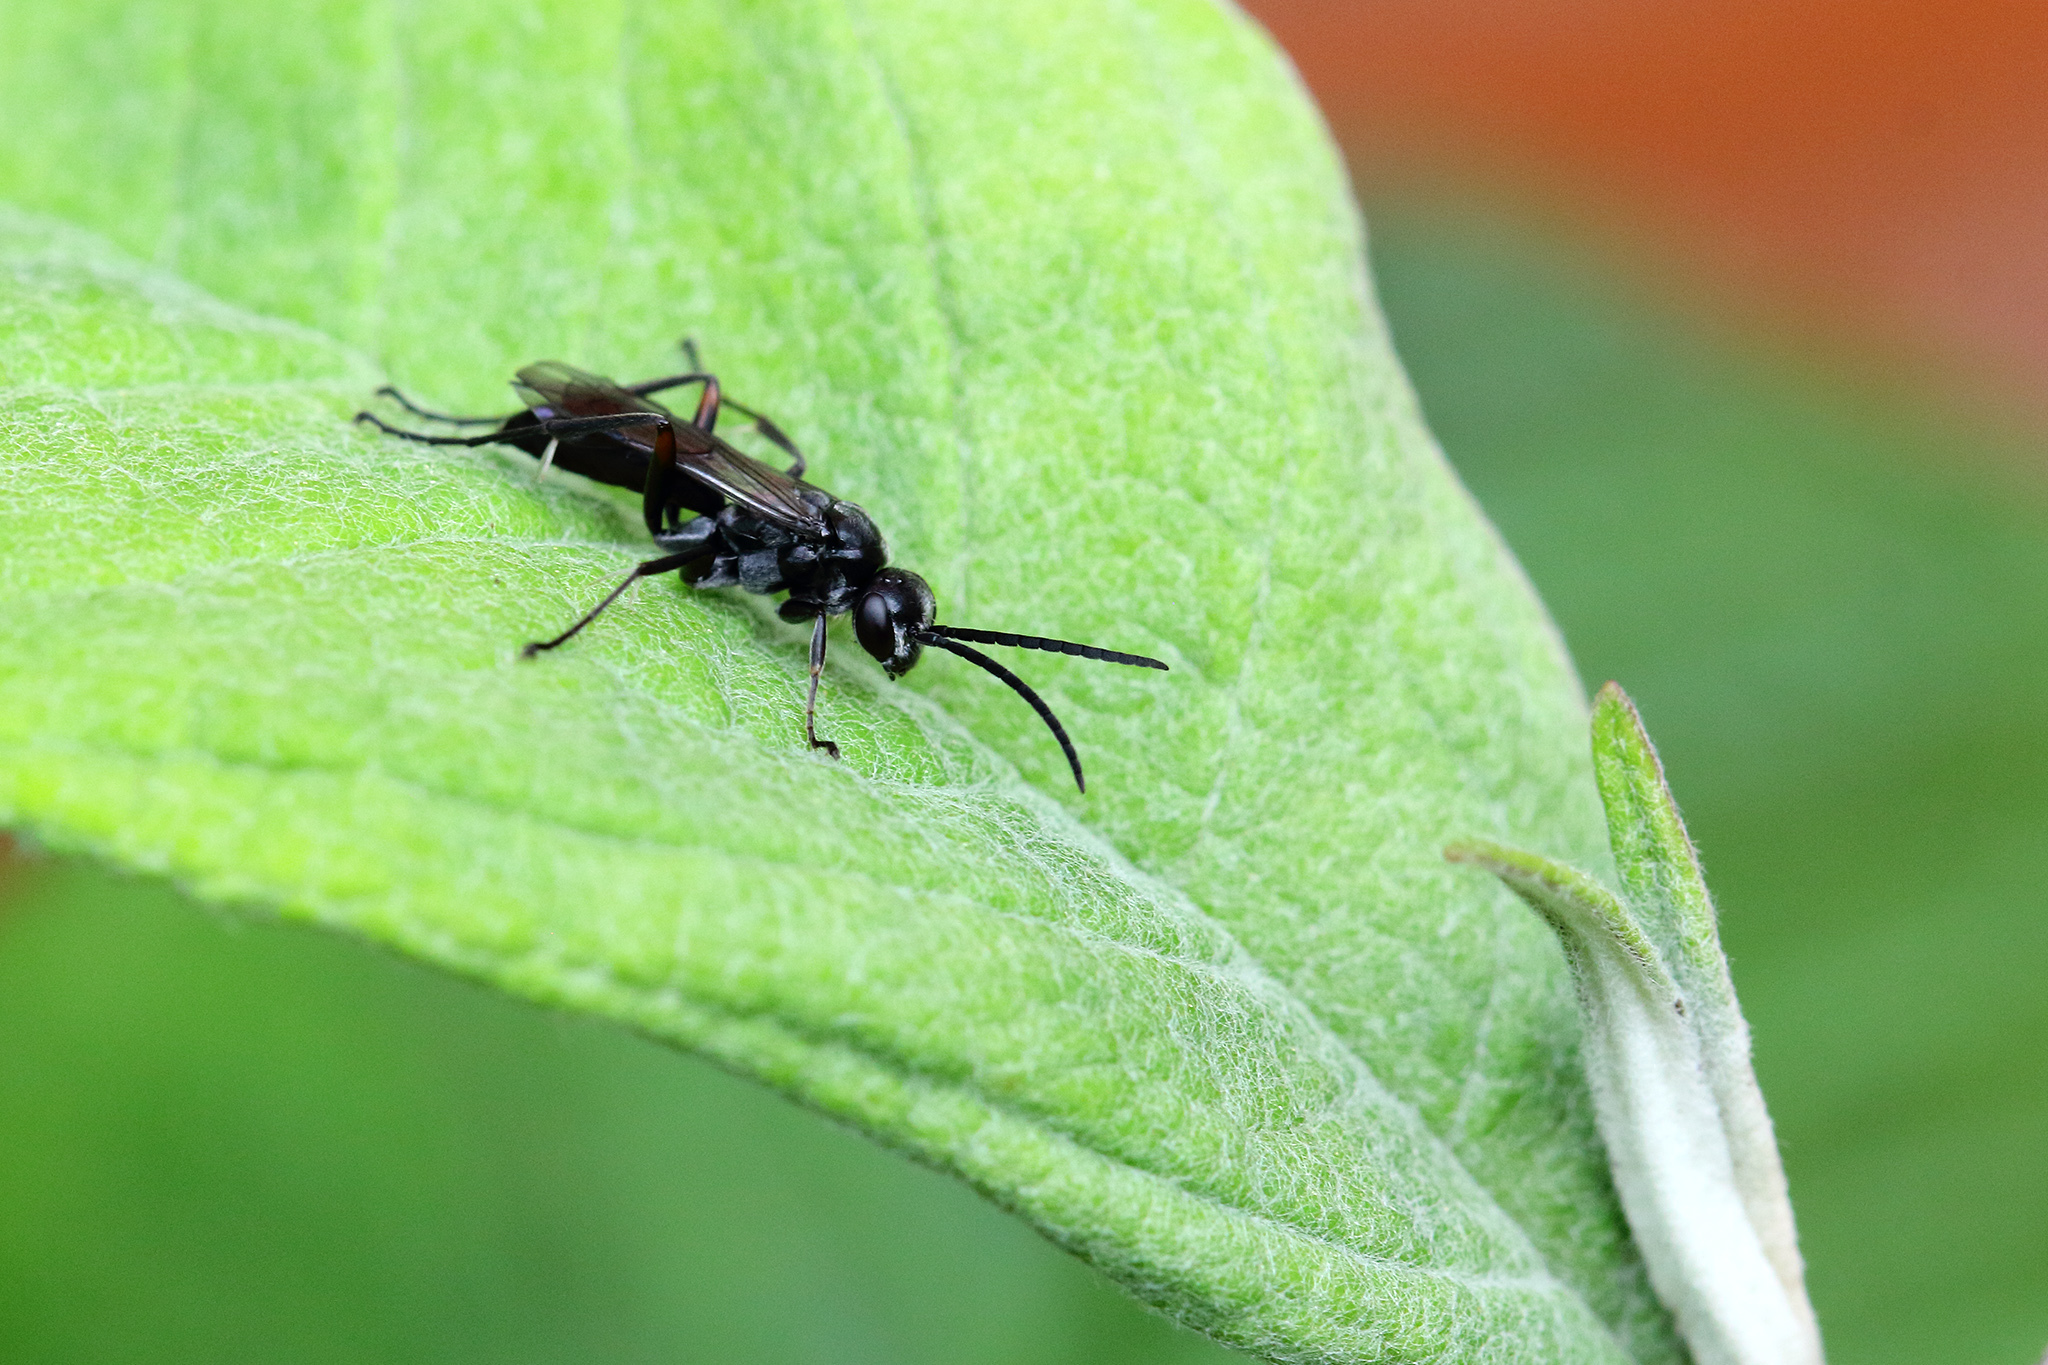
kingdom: Animalia
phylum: Arthropoda
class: Insecta
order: Hymenoptera
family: Pompilidae
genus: Caliadurgus
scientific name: Caliadurgus fasciatellus
